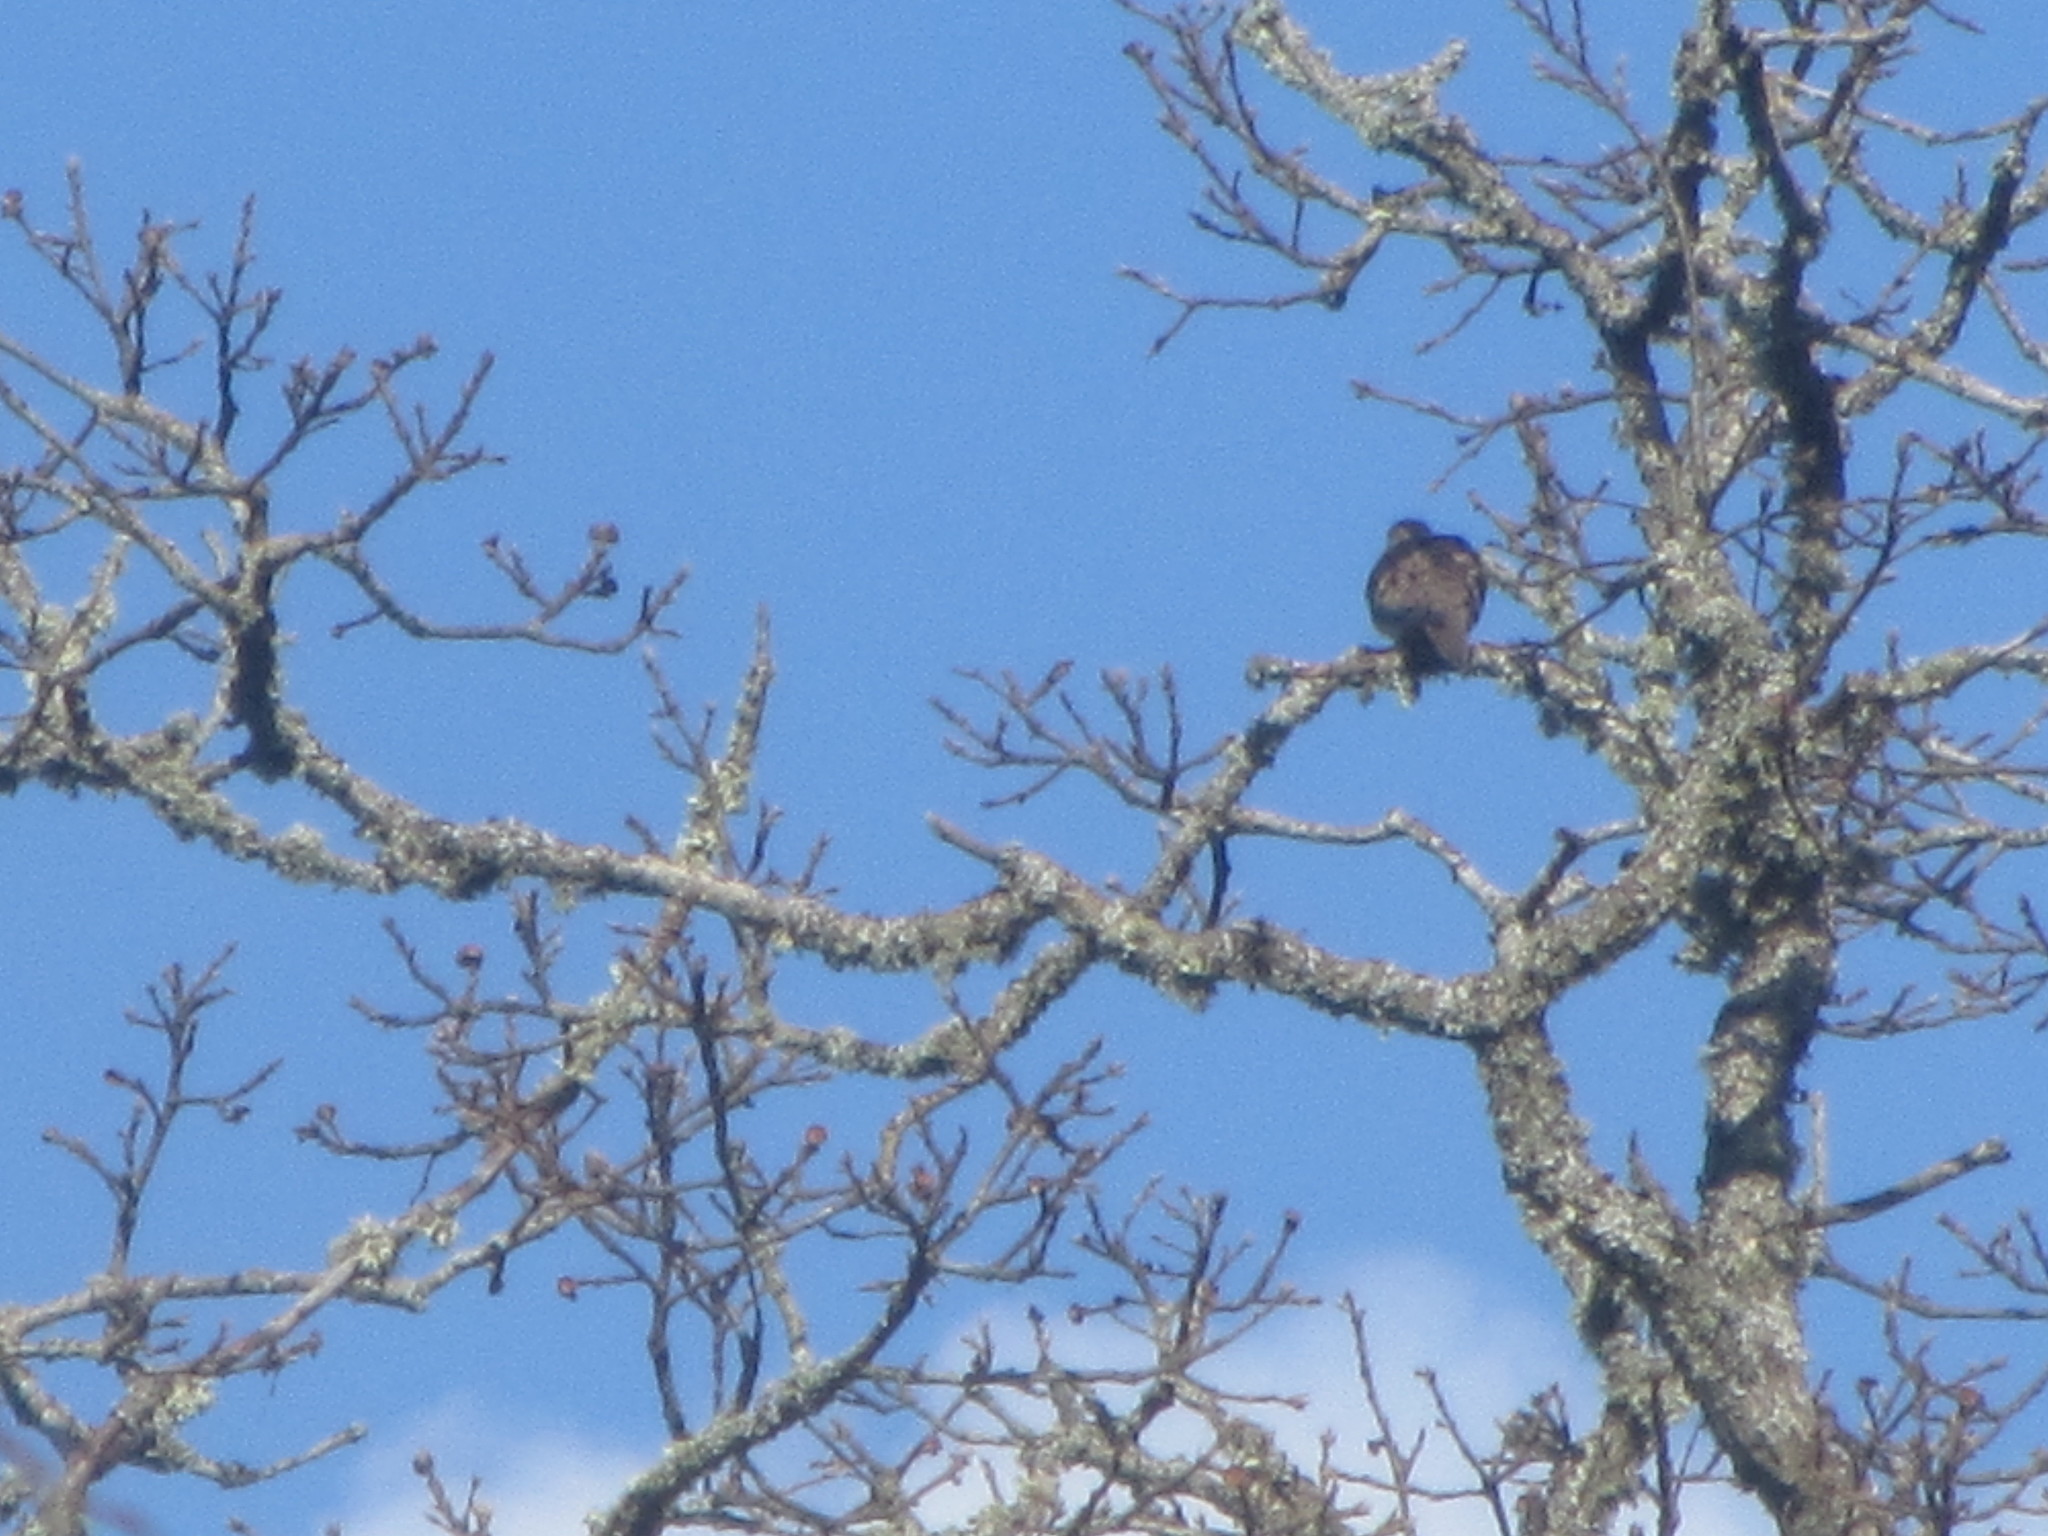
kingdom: Animalia
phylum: Chordata
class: Aves
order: Columbiformes
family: Columbidae
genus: Zenaida
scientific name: Zenaida macroura
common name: Mourning dove
